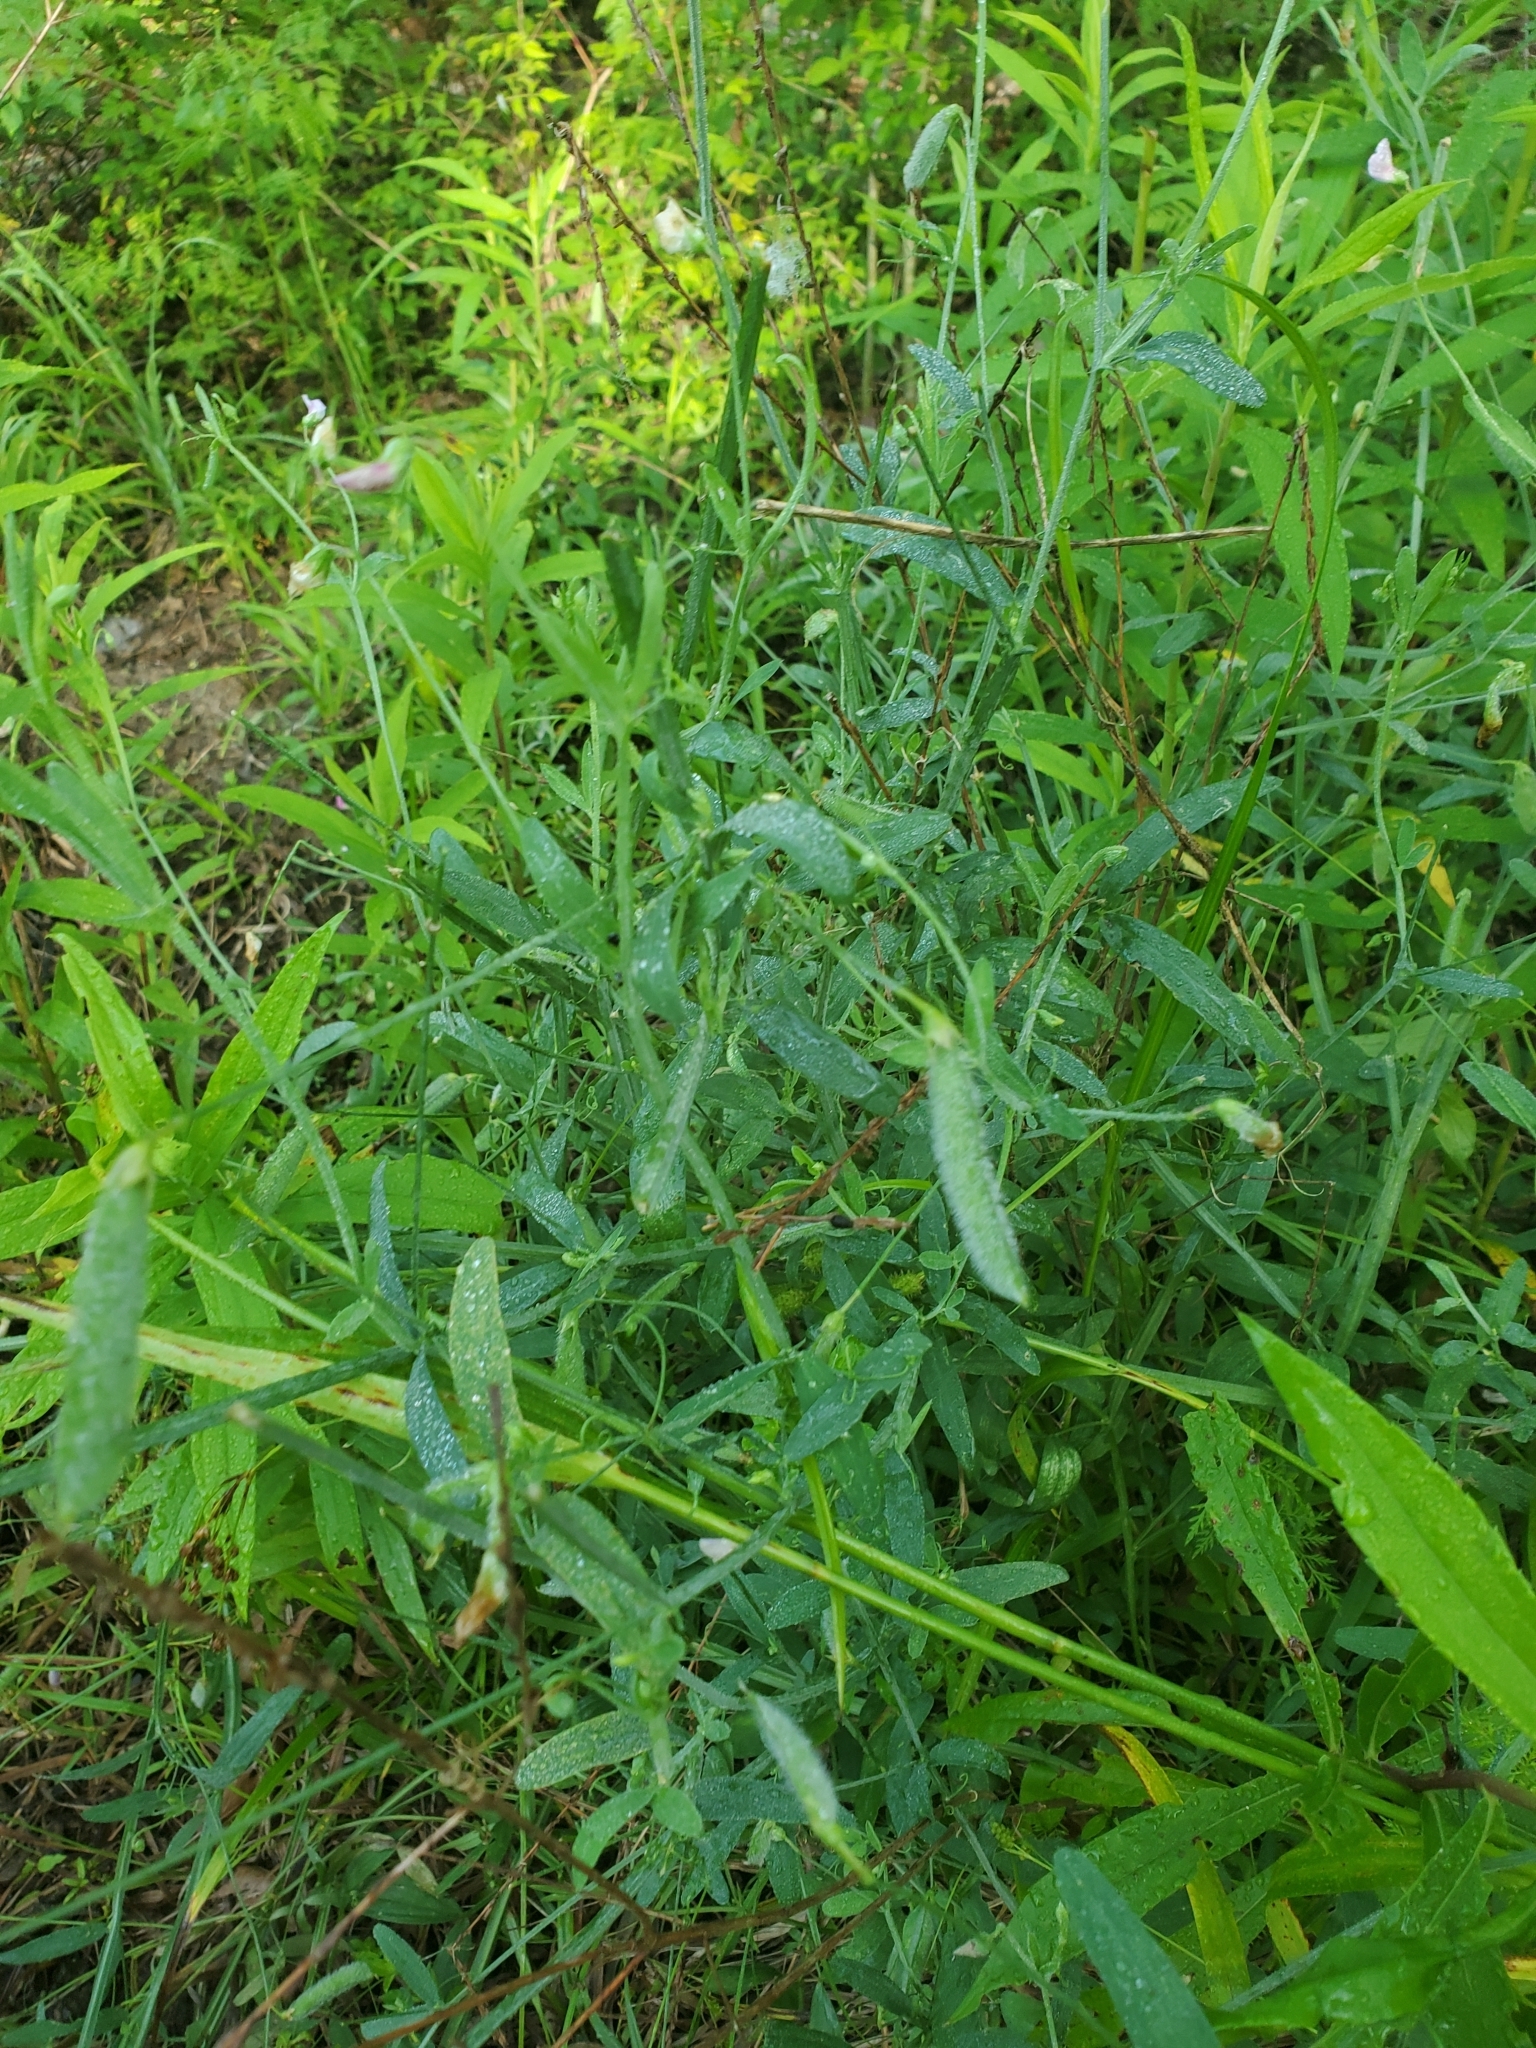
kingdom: Plantae
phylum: Tracheophyta
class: Magnoliopsida
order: Fabales
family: Fabaceae
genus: Lathyrus
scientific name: Lathyrus hirsutus
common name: Hairy vetchling
